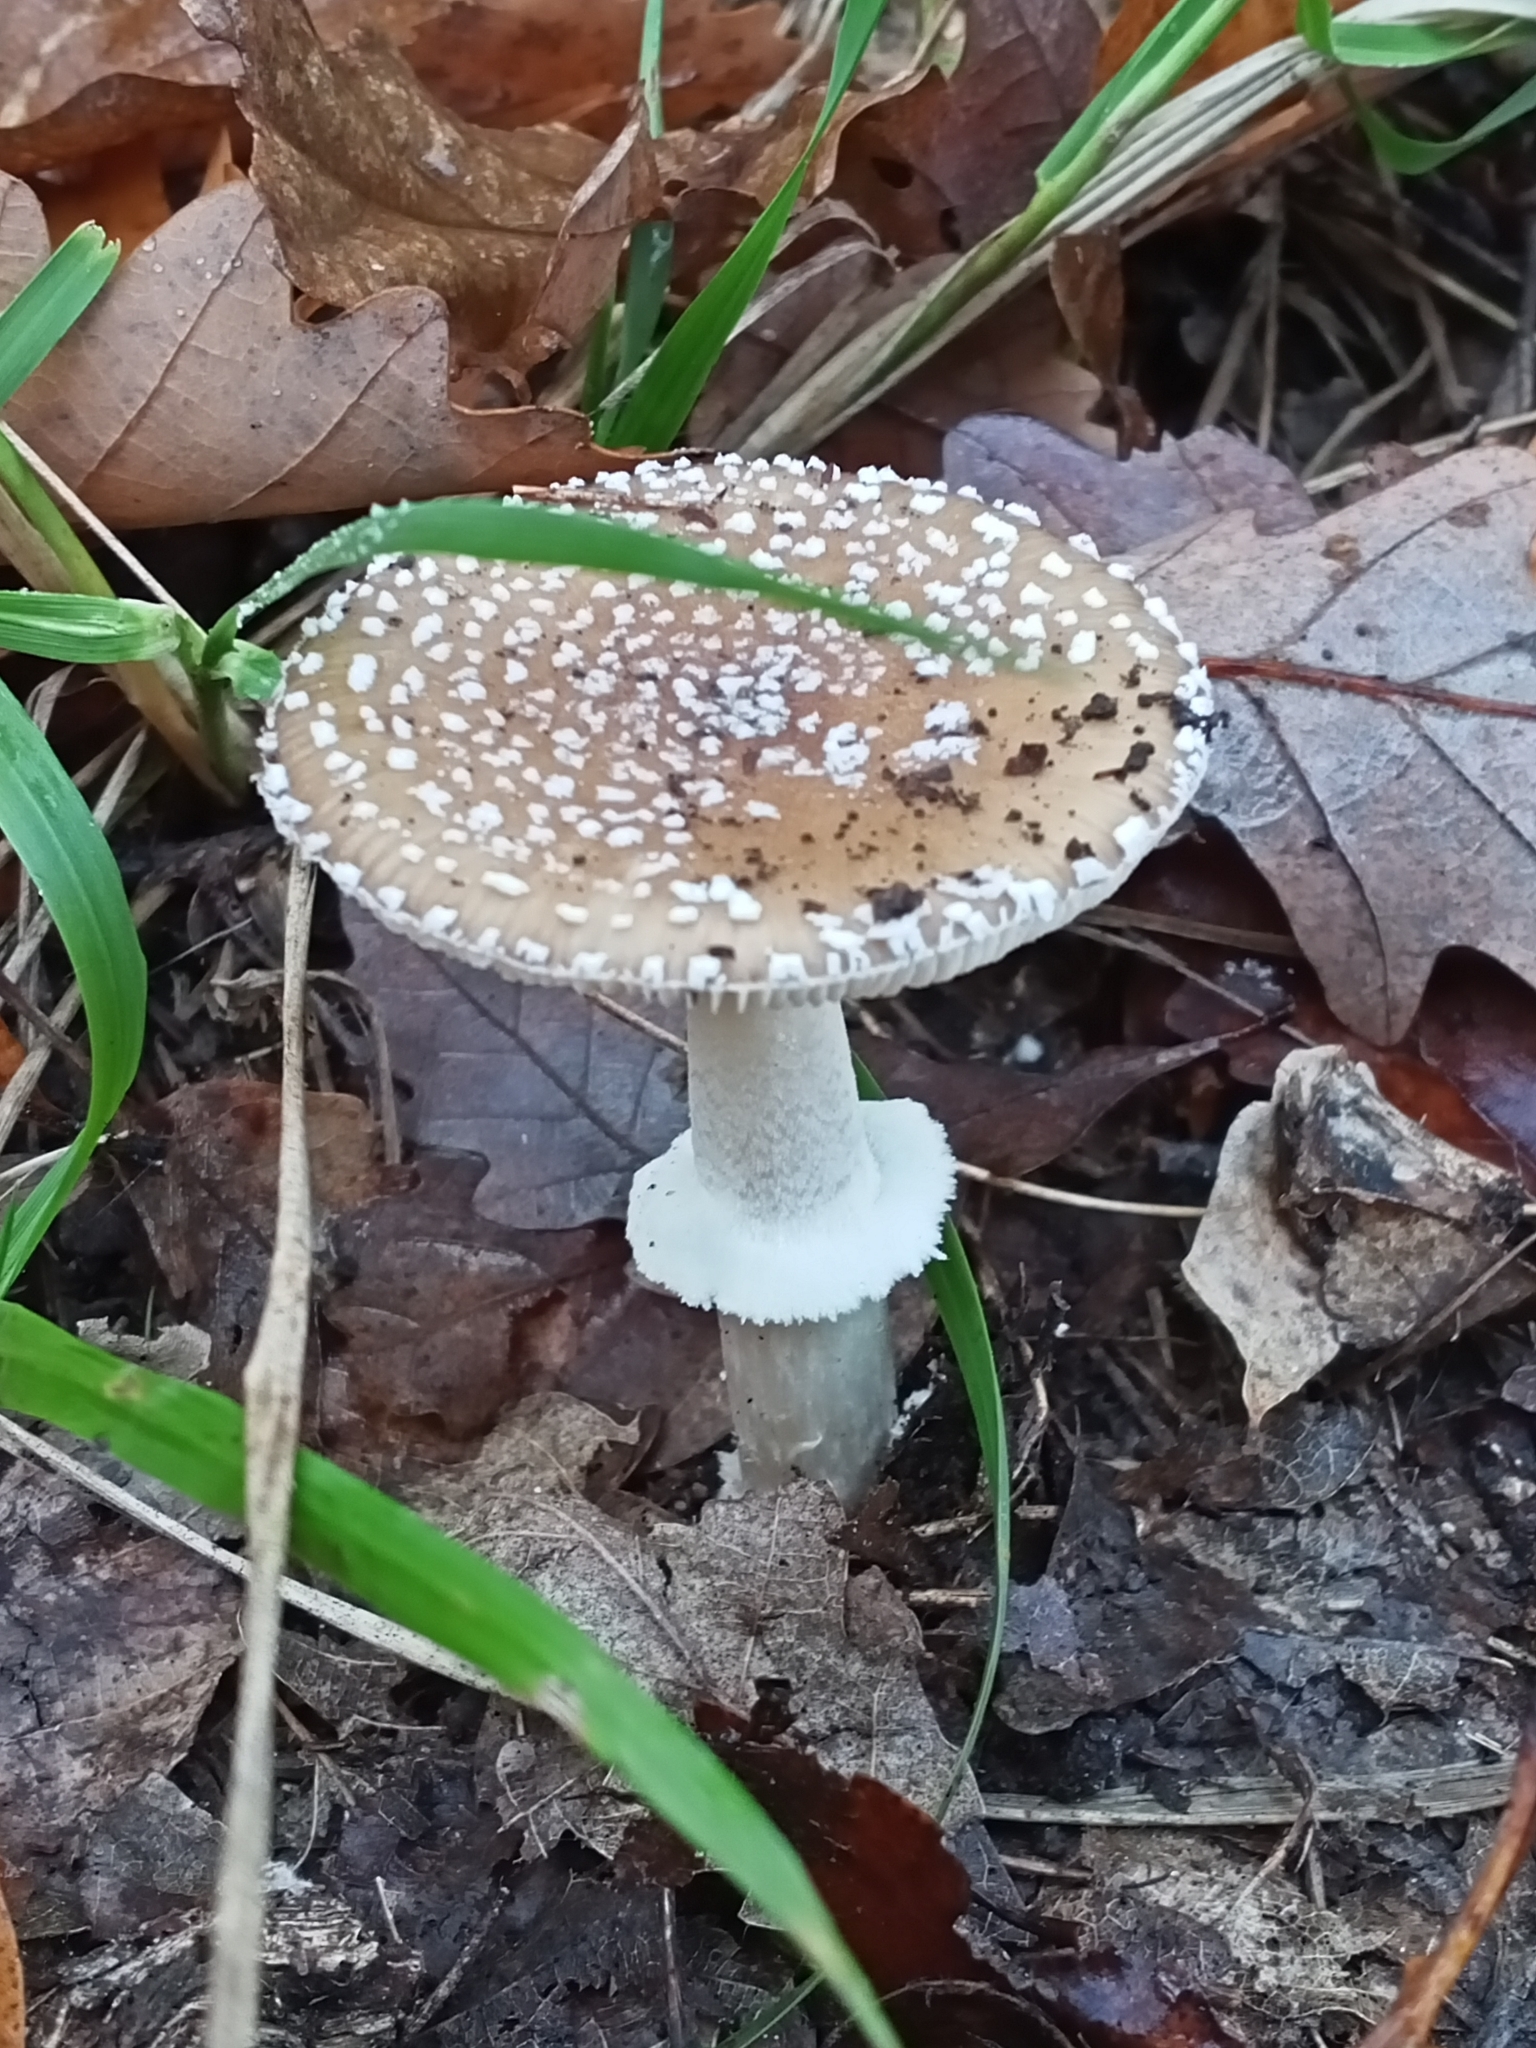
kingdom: Fungi
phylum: Basidiomycota
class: Agaricomycetes
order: Agaricales
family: Amanitaceae
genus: Amanita
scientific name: Amanita pantherina
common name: Panthercap
